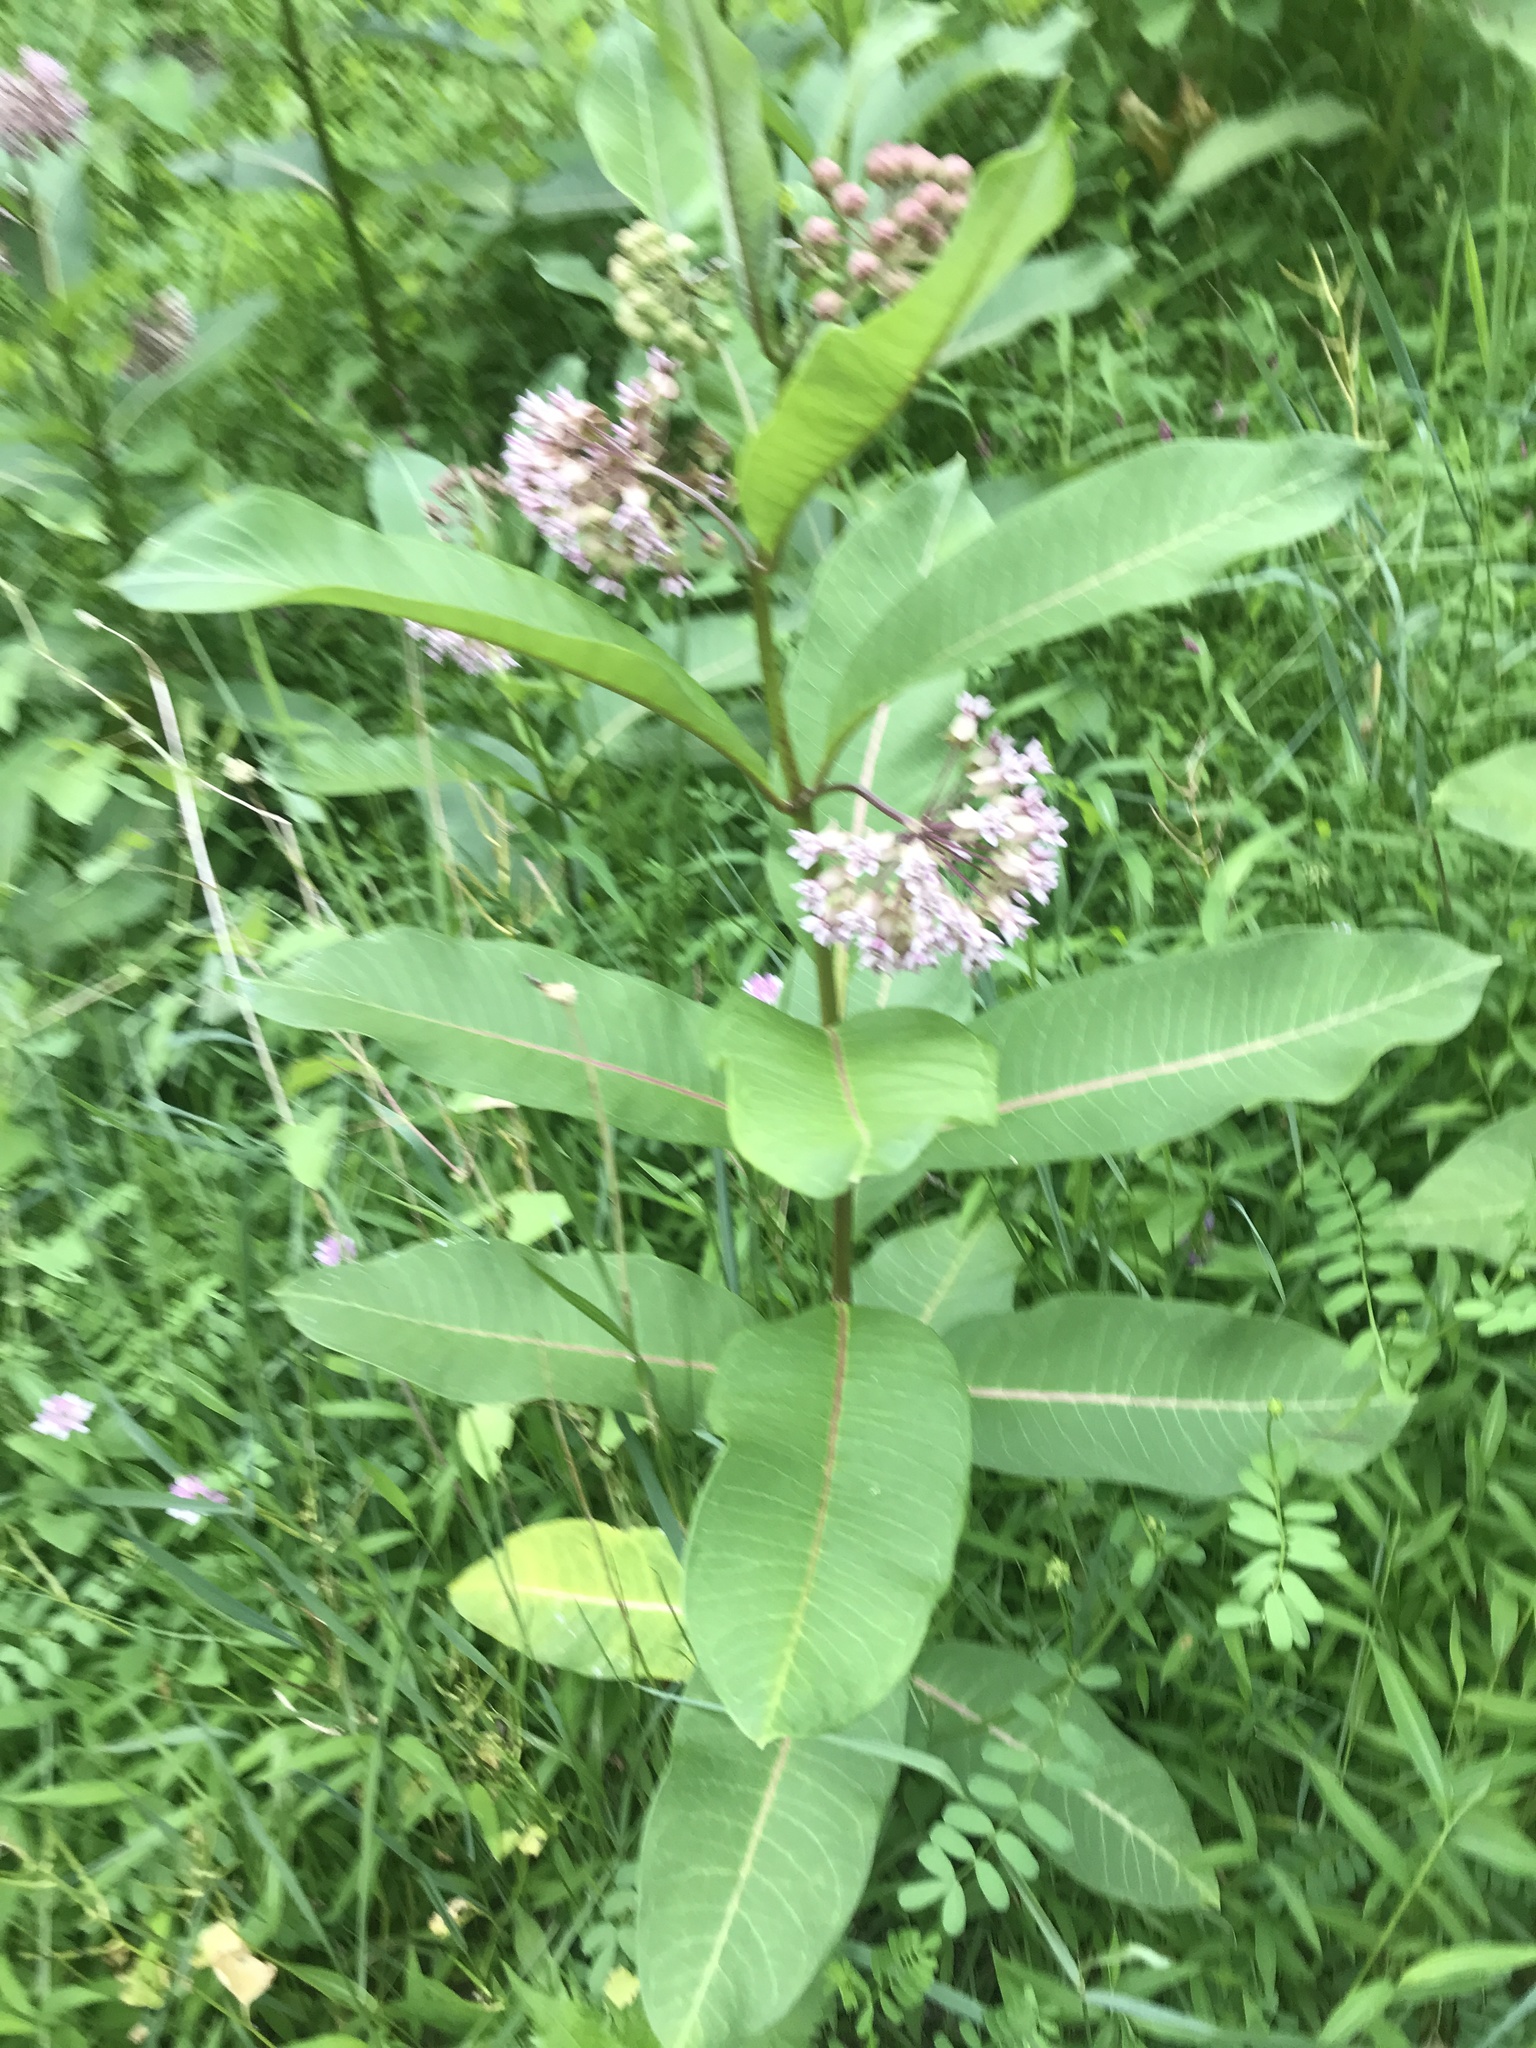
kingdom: Plantae
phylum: Tracheophyta
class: Magnoliopsida
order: Gentianales
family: Apocynaceae
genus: Asclepias
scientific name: Asclepias syriaca
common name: Common milkweed
